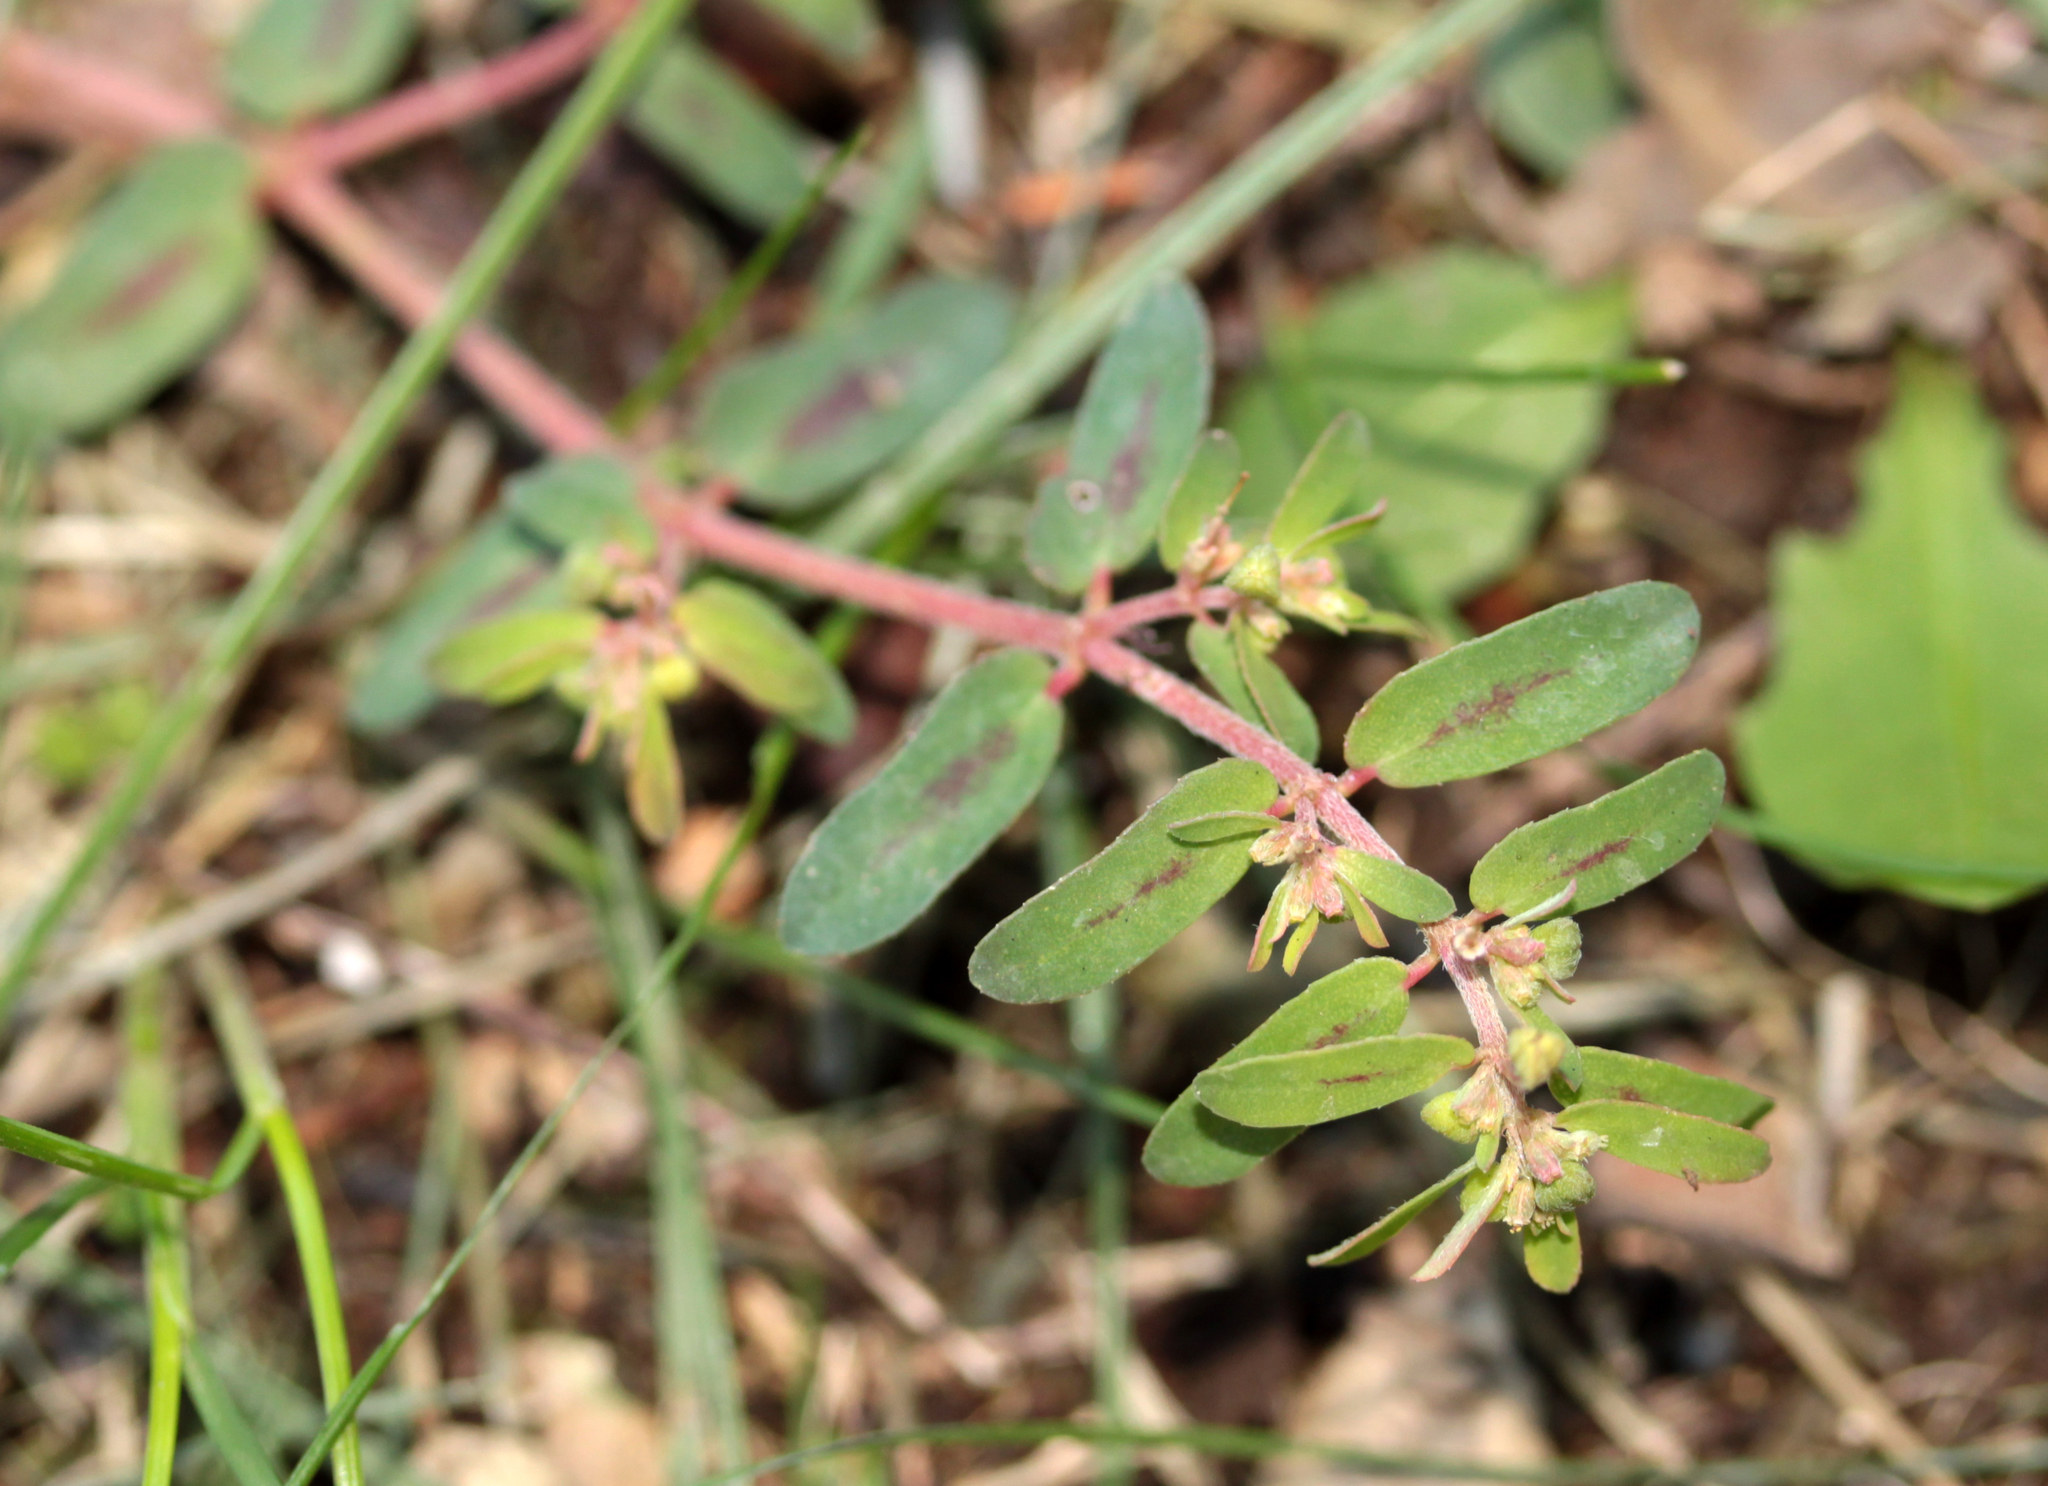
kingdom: Plantae
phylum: Tracheophyta
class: Magnoliopsida
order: Malpighiales
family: Euphorbiaceae
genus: Euphorbia
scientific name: Euphorbia maculata
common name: Spotted spurge
